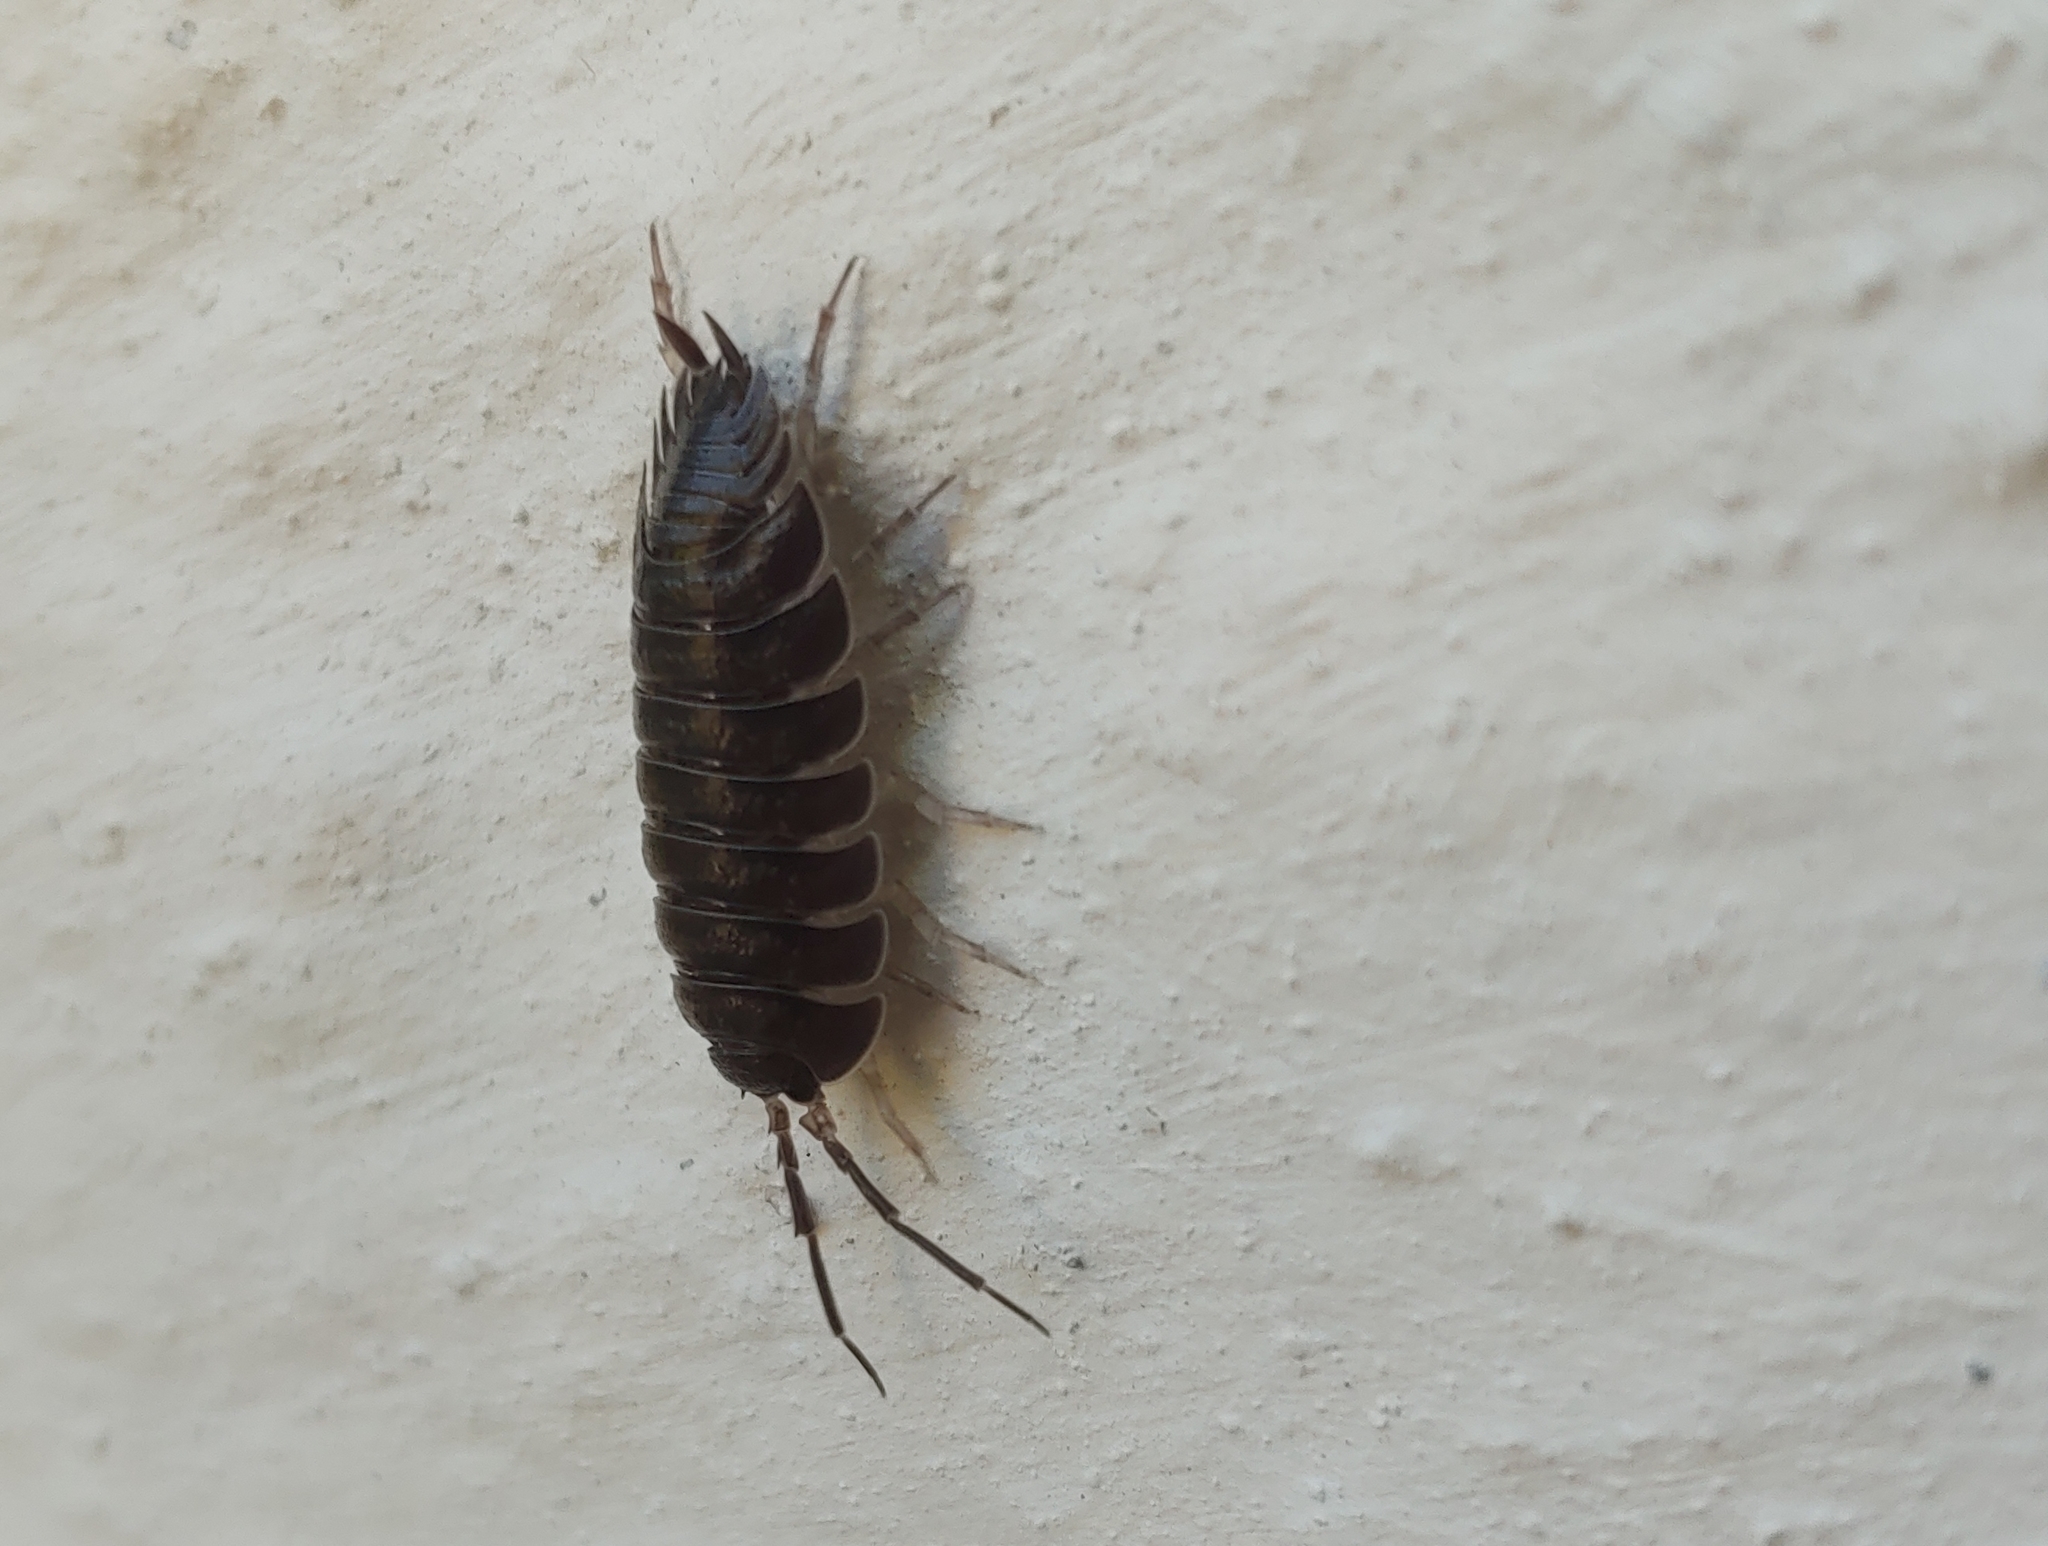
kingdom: Animalia
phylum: Arthropoda
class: Malacostraca
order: Isopoda
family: Porcellionidae
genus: Porcellio
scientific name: Porcellio obsoletus
